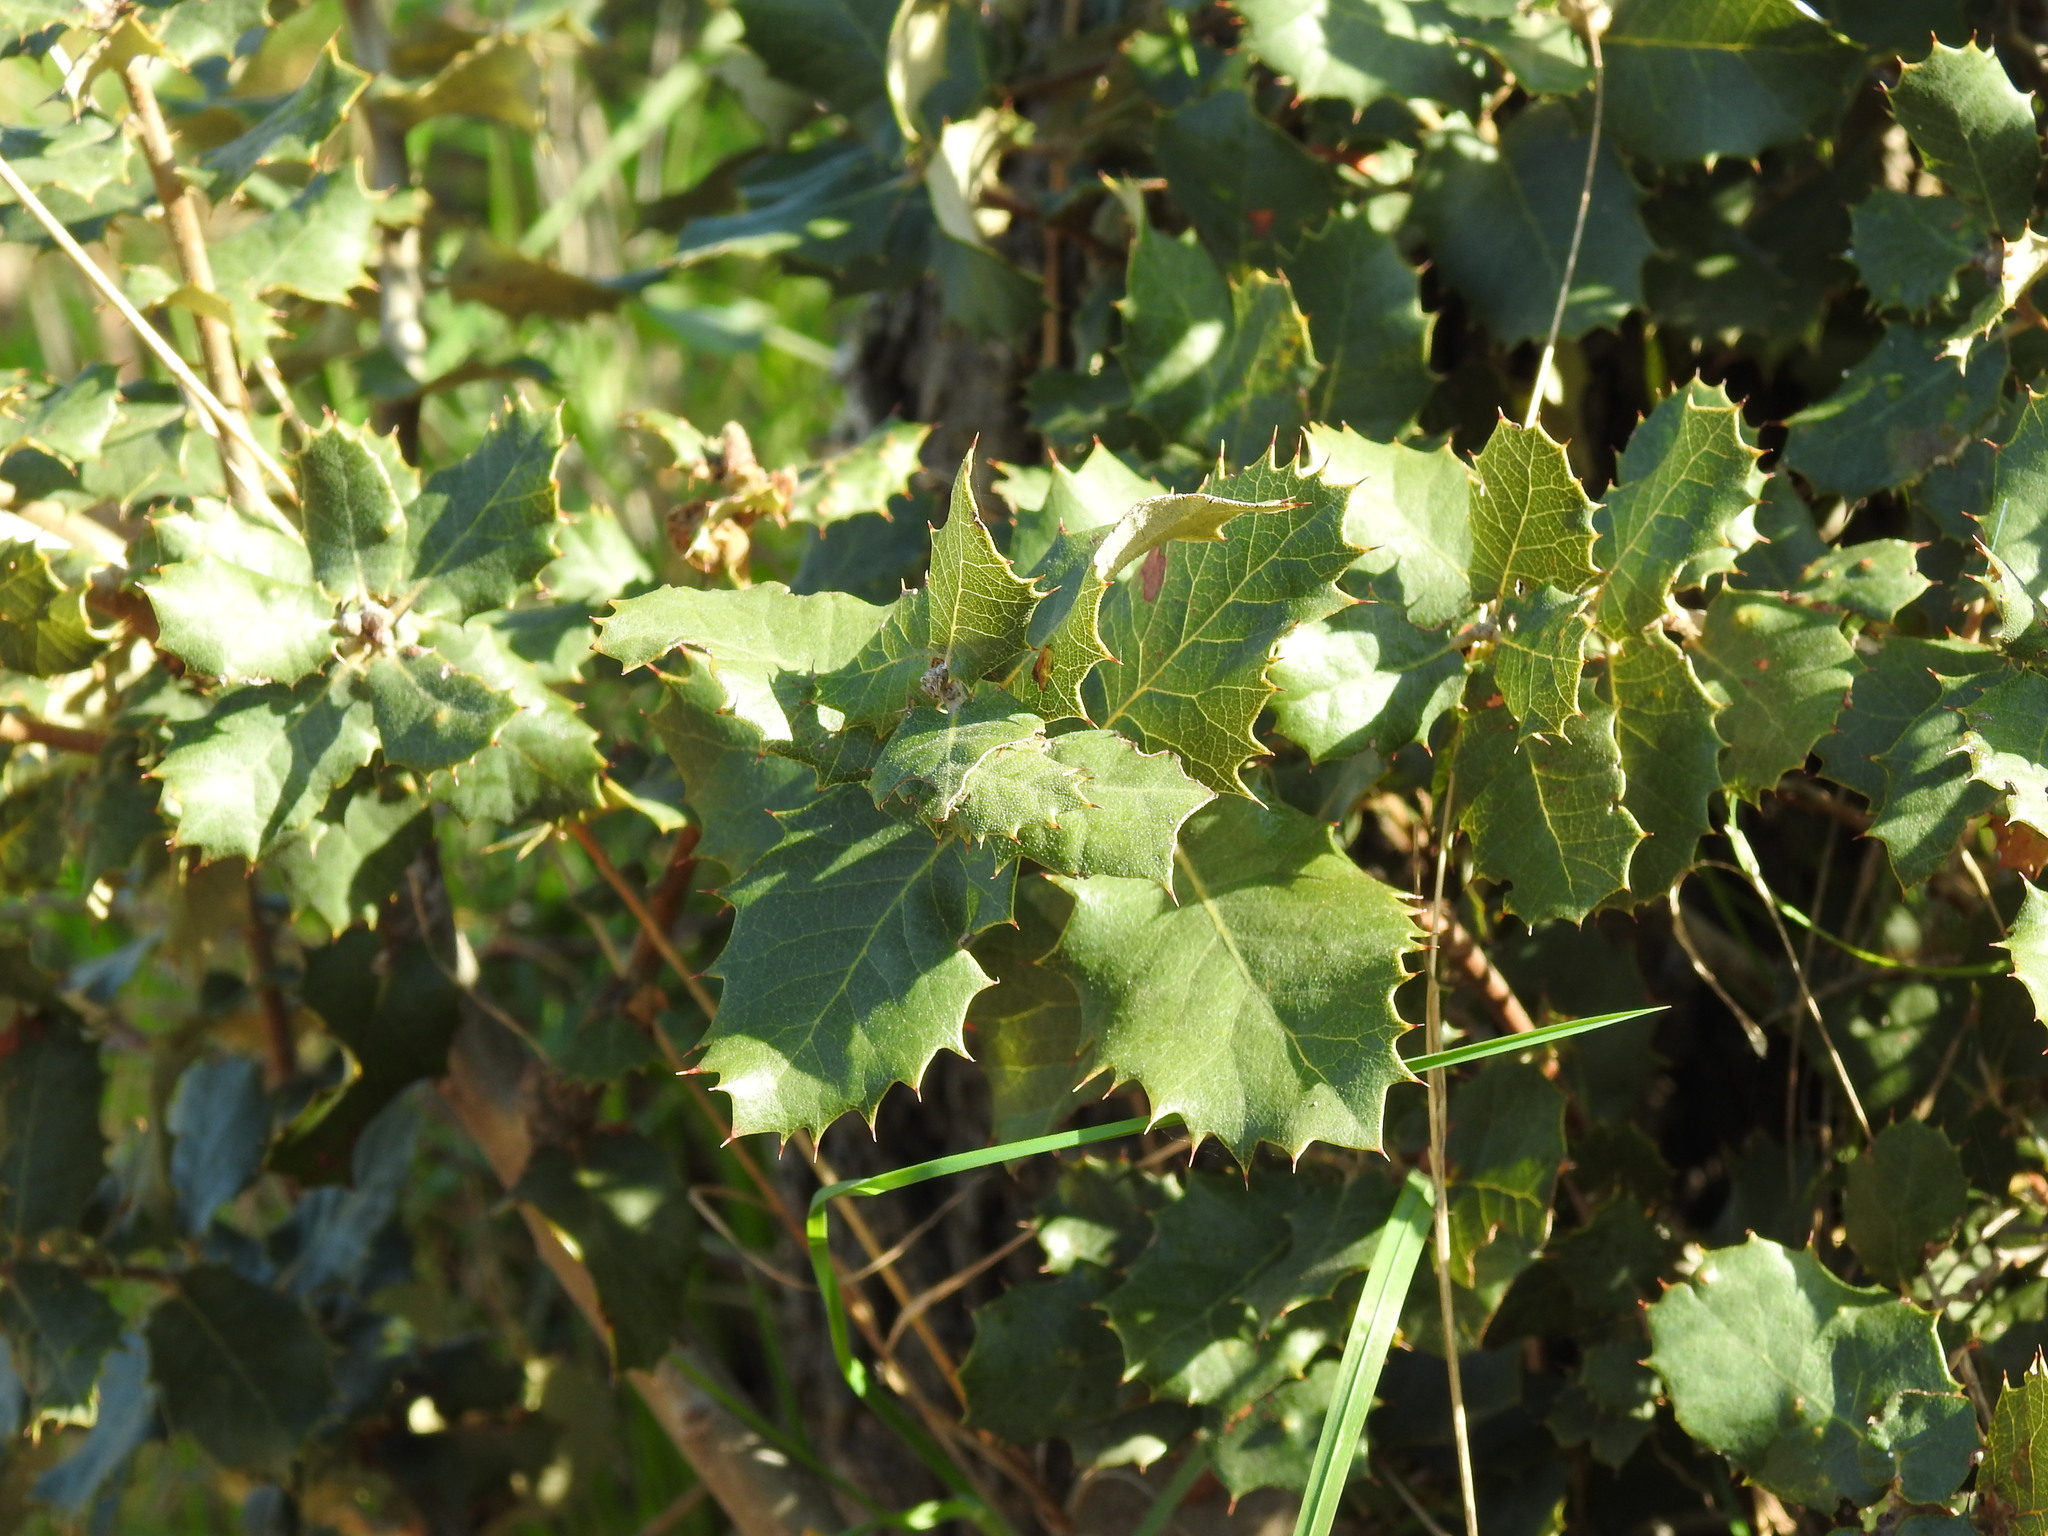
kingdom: Plantae
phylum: Tracheophyta
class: Magnoliopsida
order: Fagales
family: Fagaceae
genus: Quercus
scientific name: Quercus rotundifolia
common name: Holm oak
